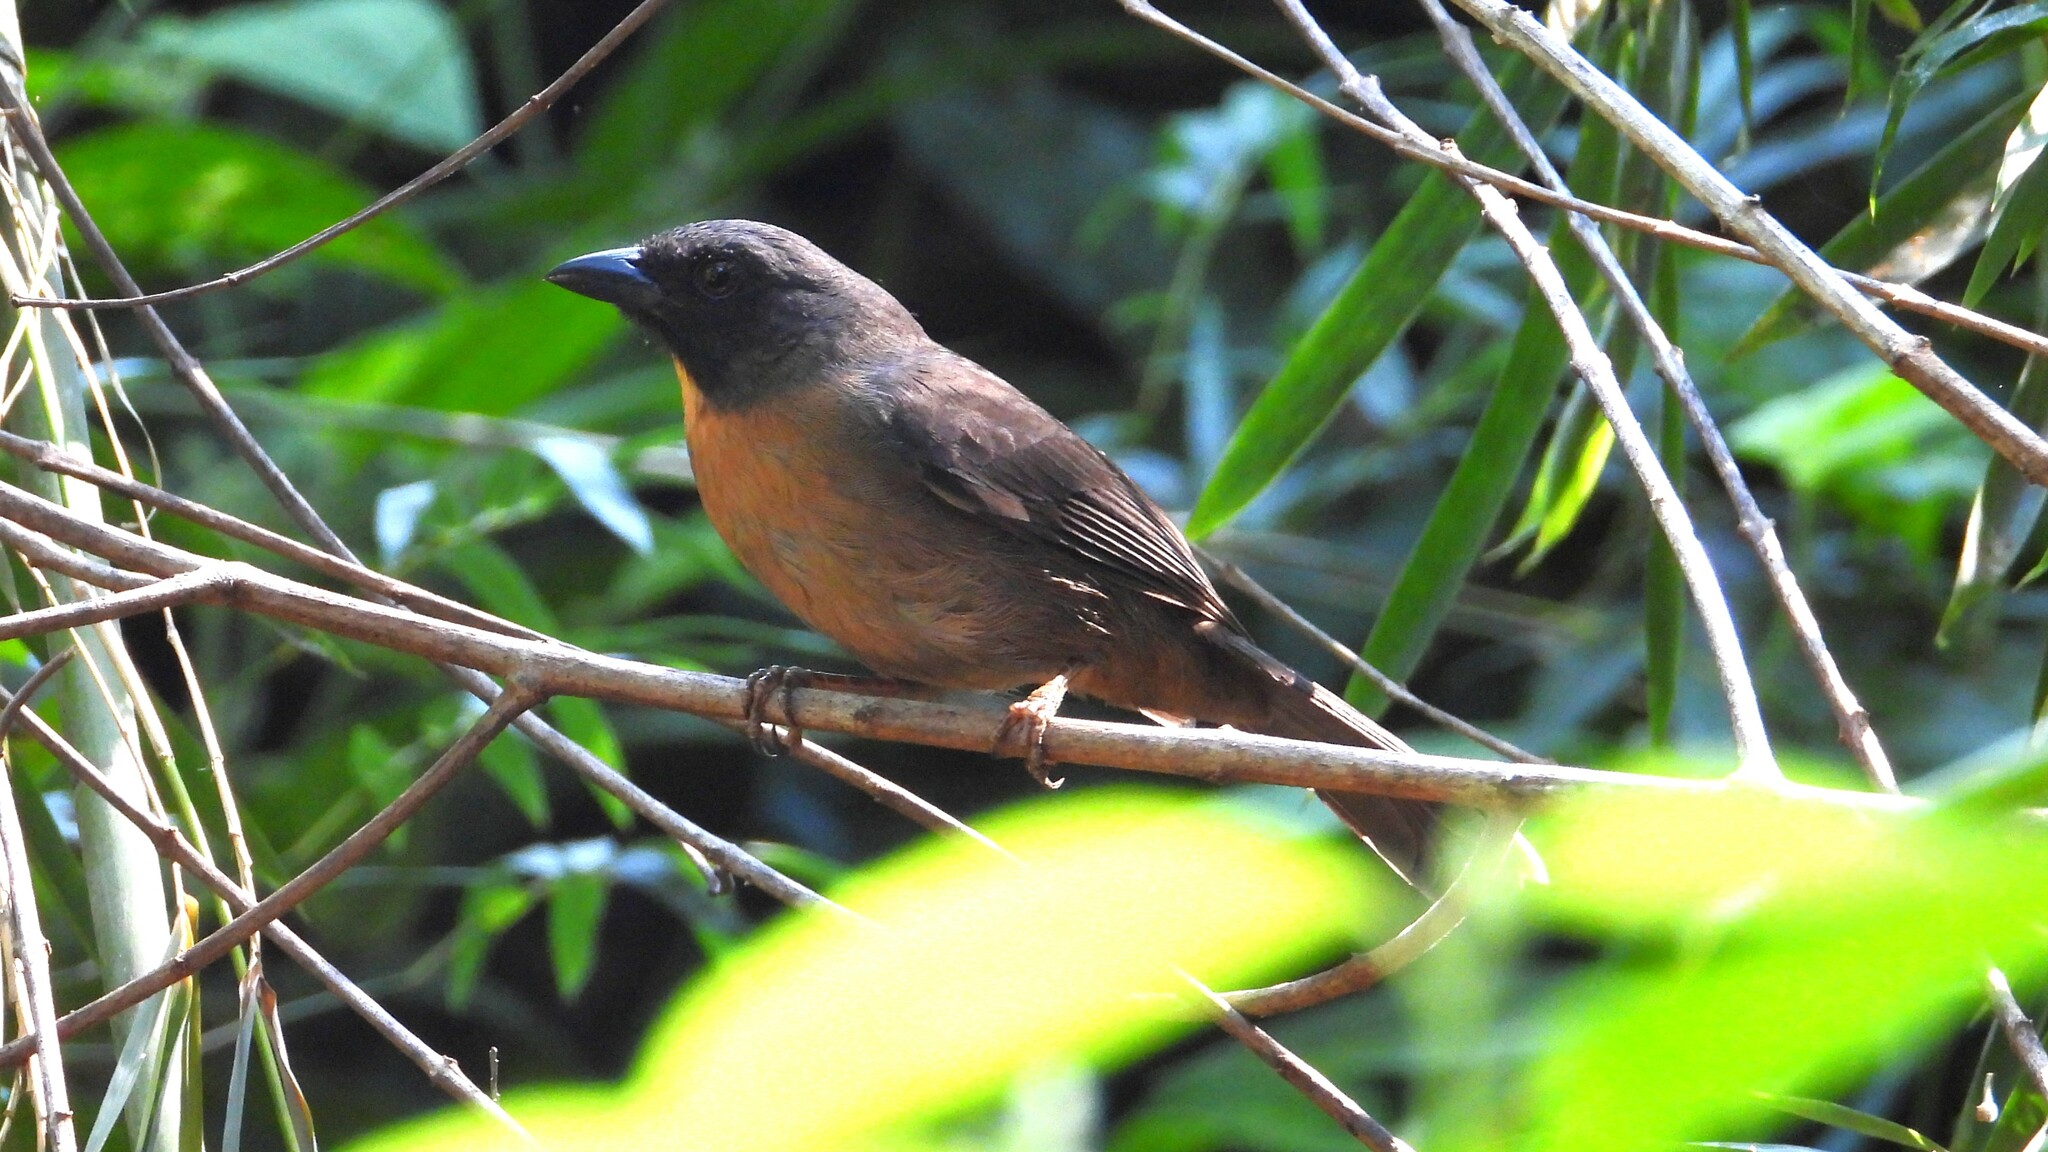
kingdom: Animalia
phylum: Chordata
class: Aves
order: Passeriformes
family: Cardinalidae
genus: Habia
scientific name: Habia atrimaxillaris
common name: Black-cheeked ant-tanager
